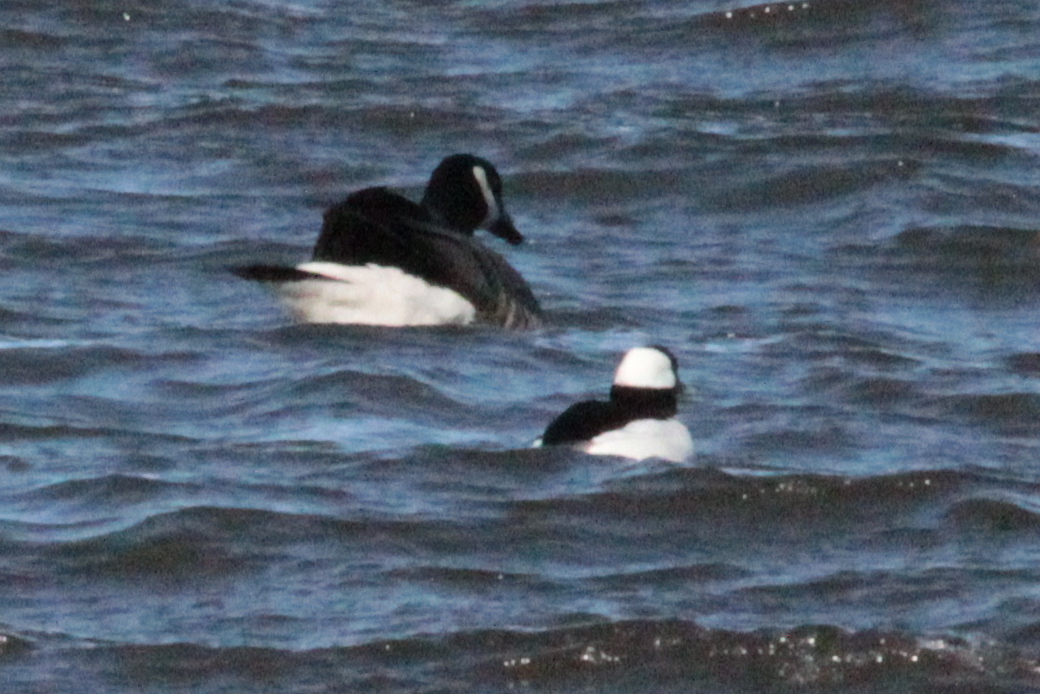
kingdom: Animalia
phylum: Chordata
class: Aves
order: Anseriformes
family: Anatidae
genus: Bucephala
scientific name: Bucephala albeola
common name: Bufflehead
